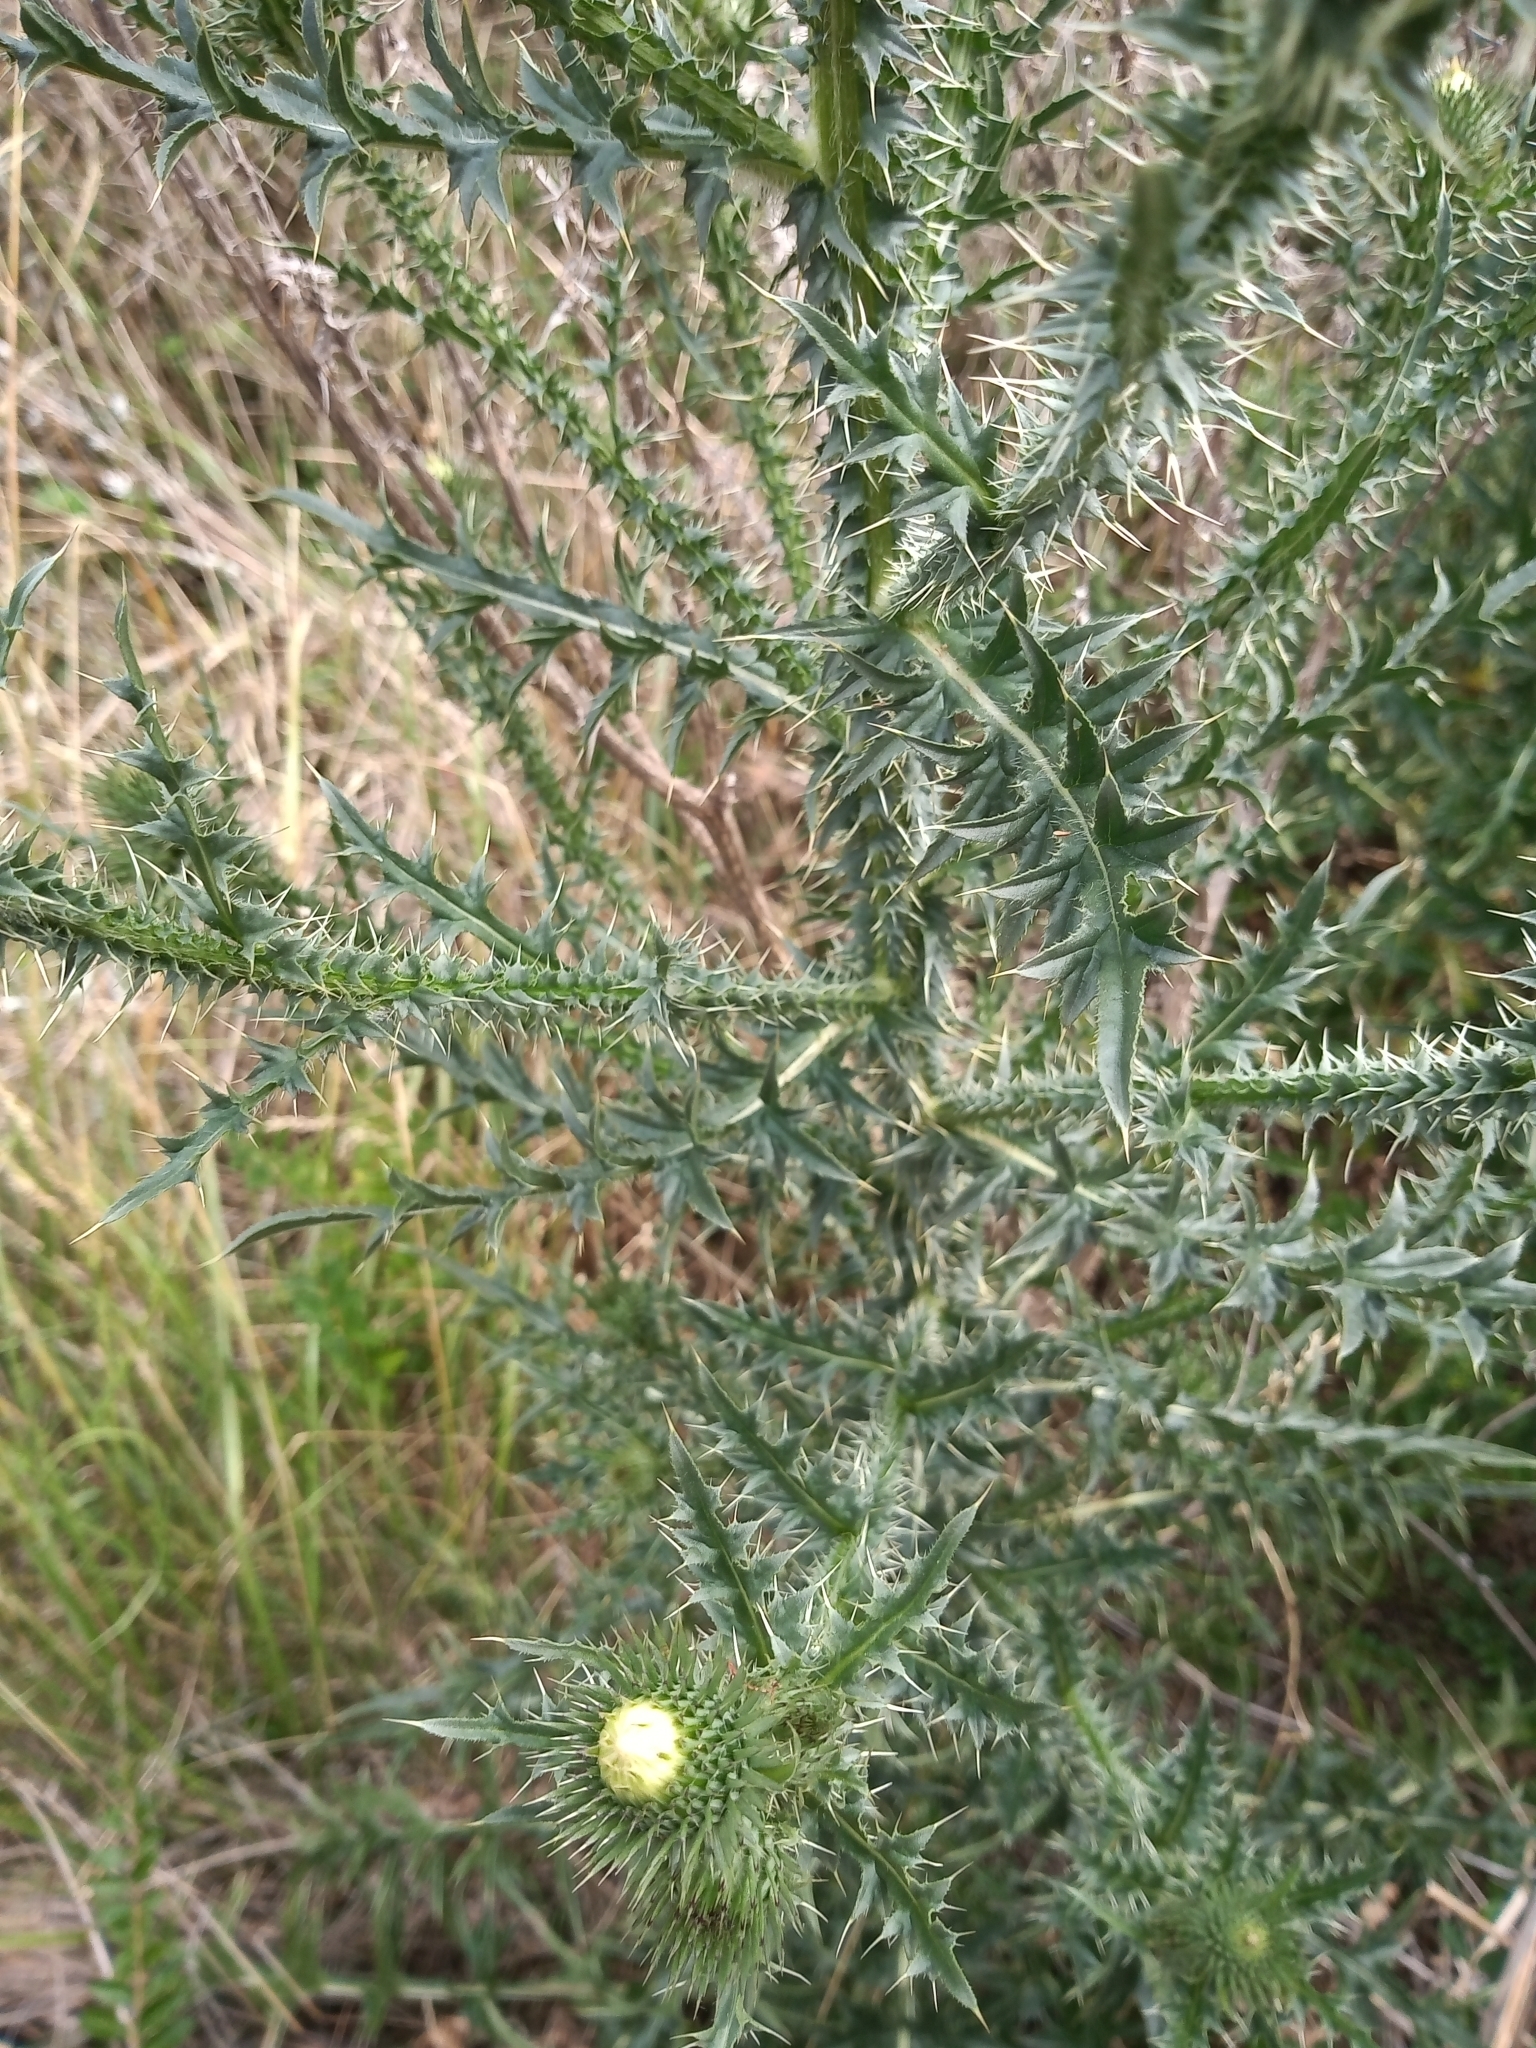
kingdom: Plantae
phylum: Tracheophyta
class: Magnoliopsida
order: Asterales
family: Asteraceae
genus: Carduus
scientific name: Carduus acanthoides
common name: Plumeless thistle
